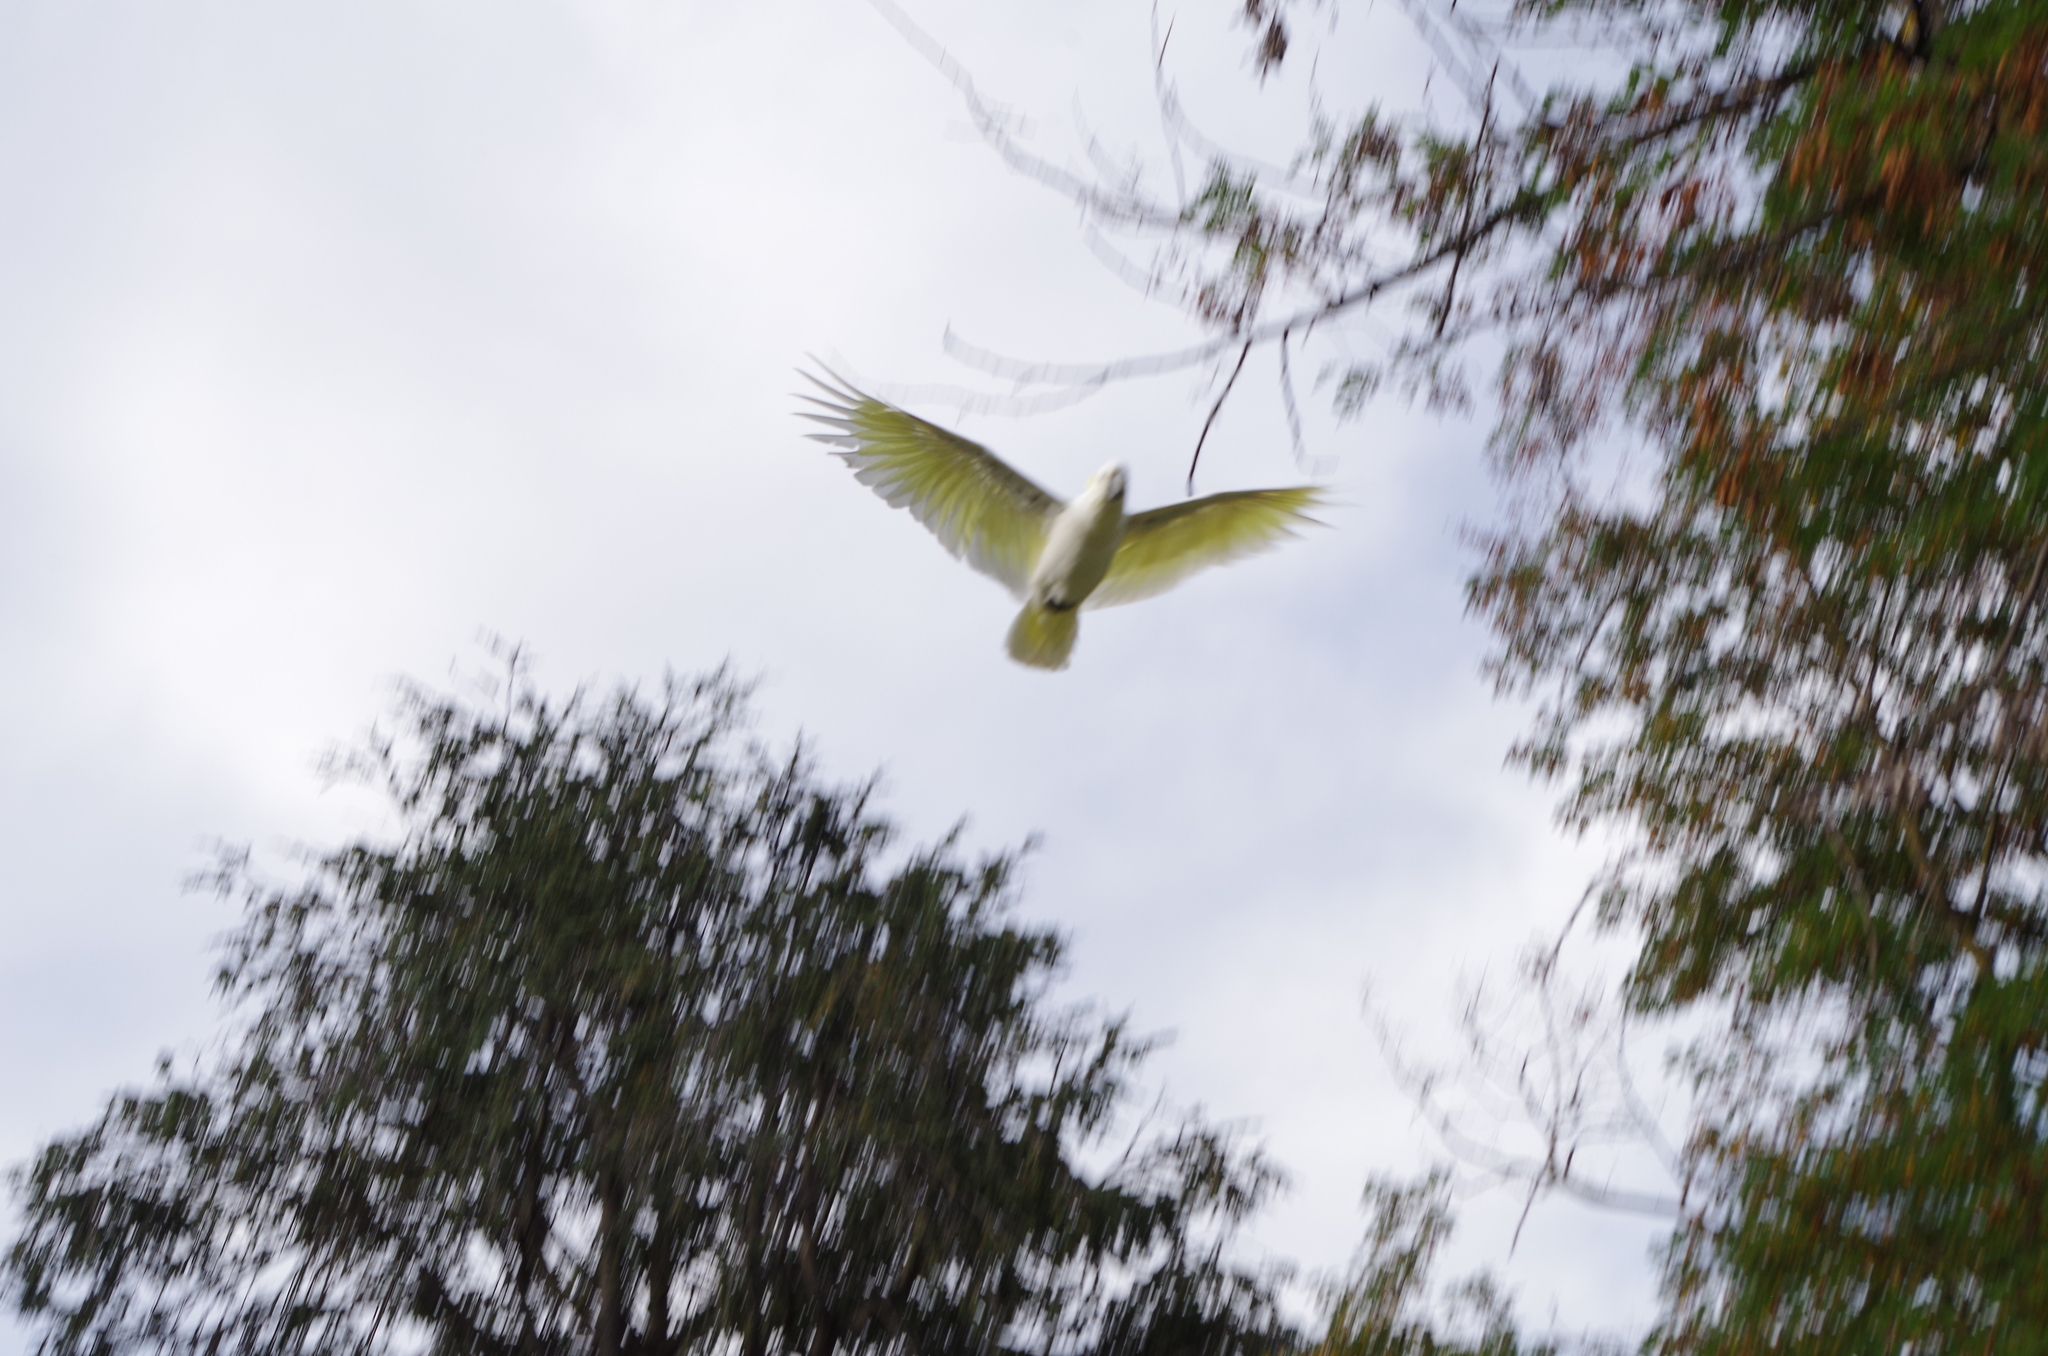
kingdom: Animalia
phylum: Chordata
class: Aves
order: Psittaciformes
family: Psittacidae
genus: Cacatua
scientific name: Cacatua galerita
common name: Sulphur-crested cockatoo
